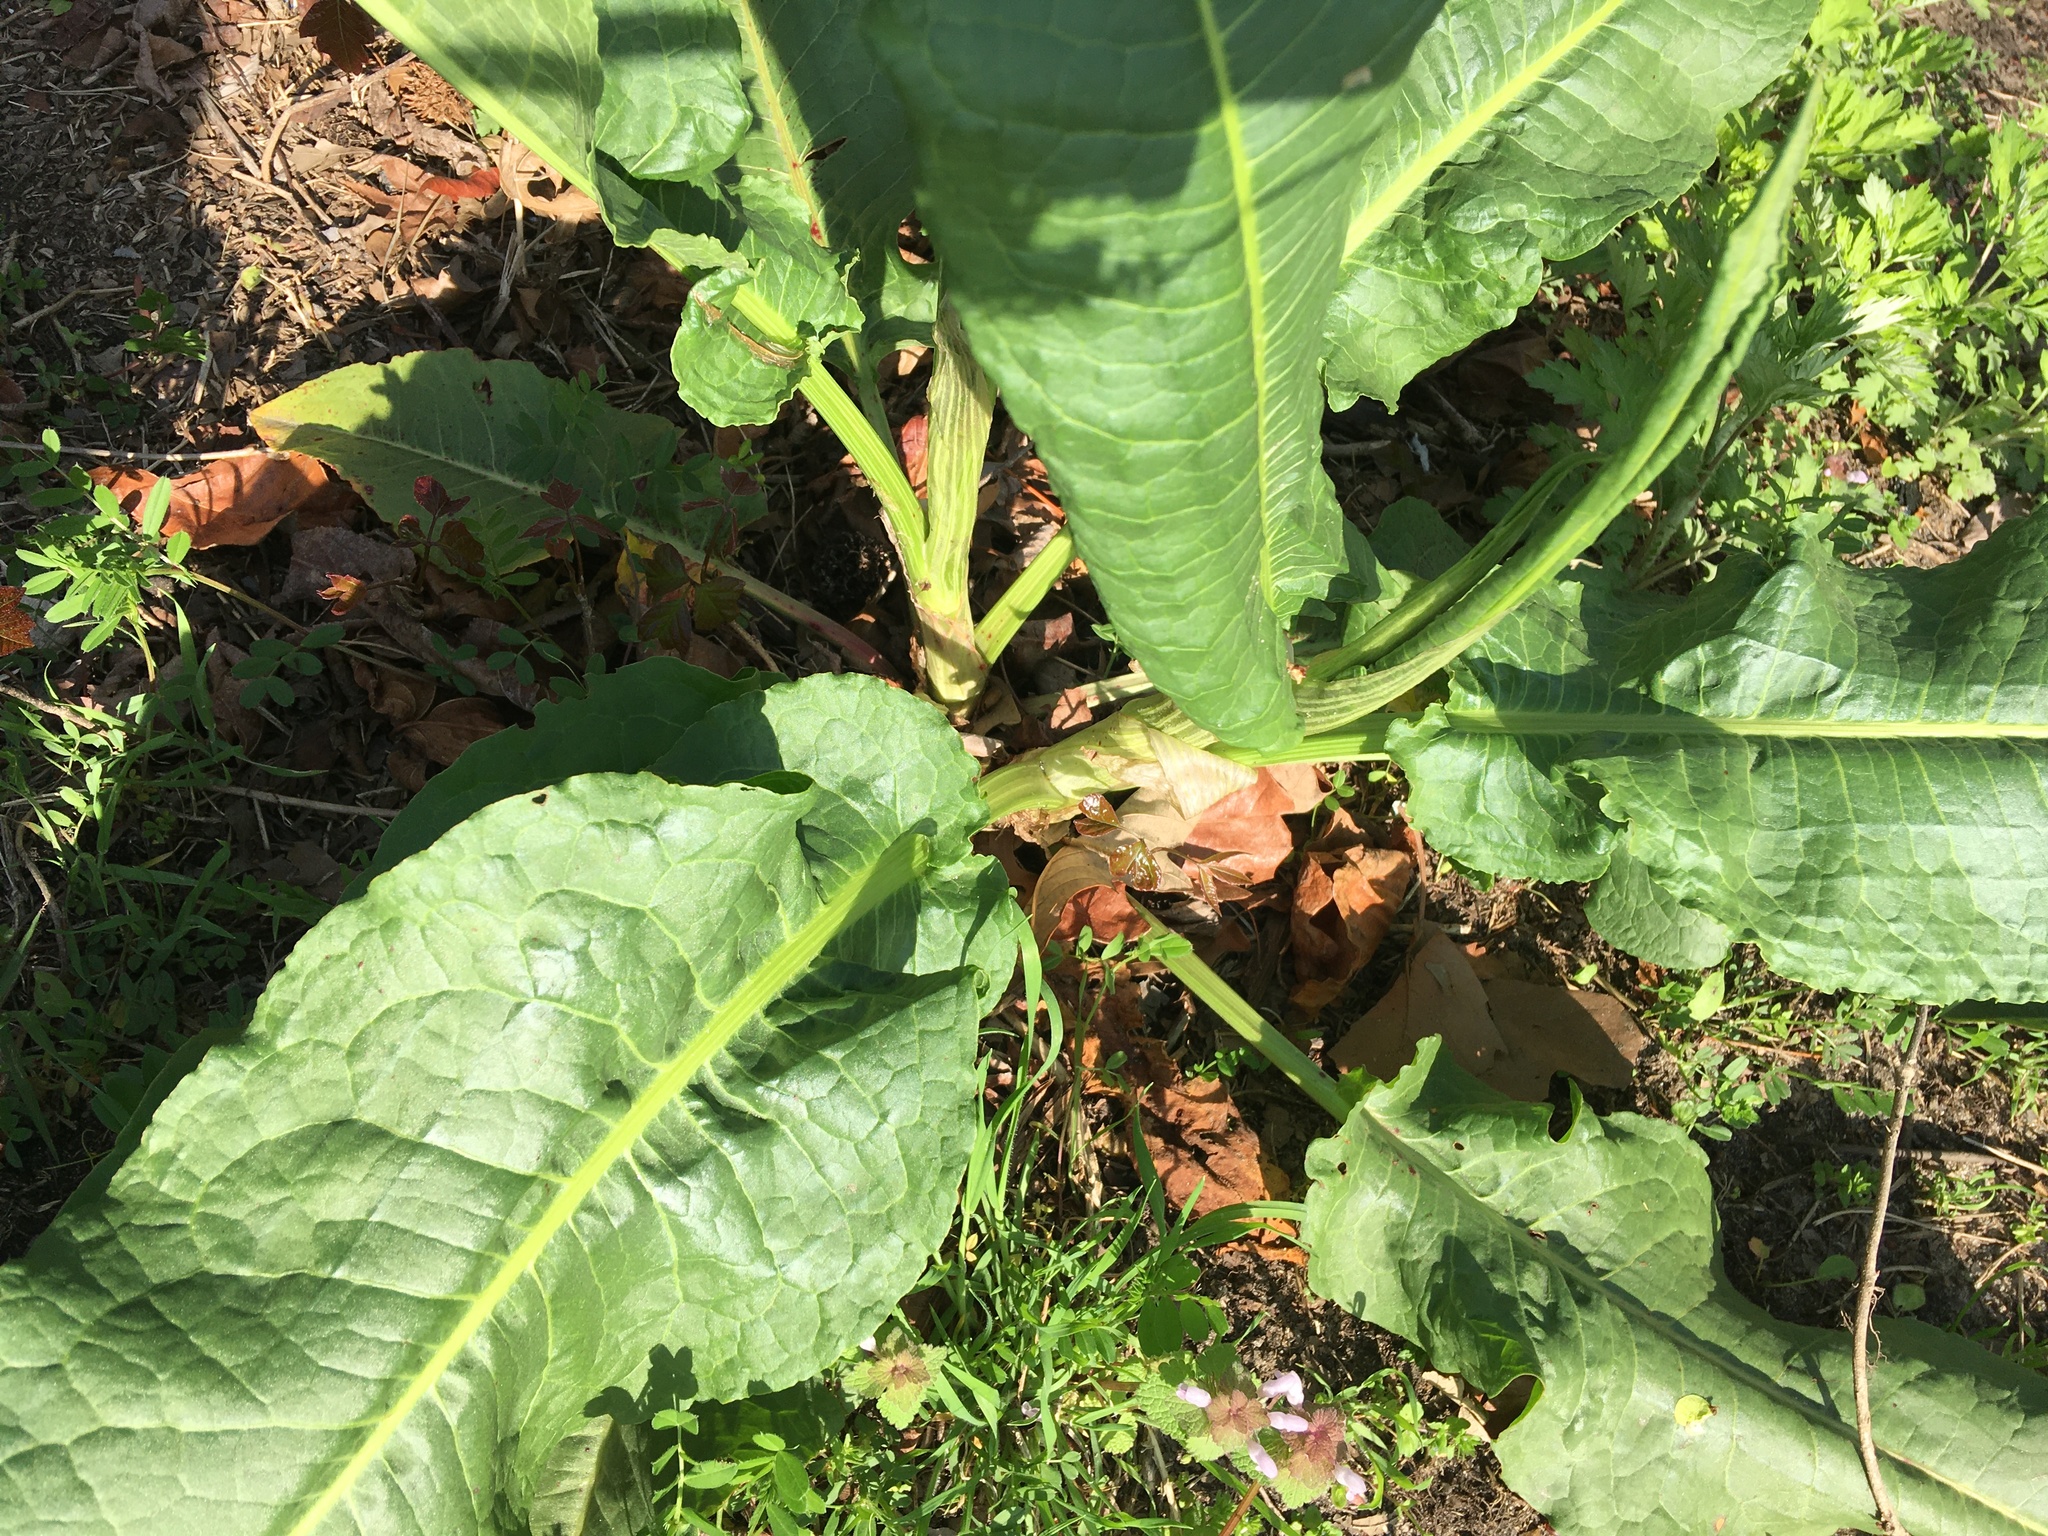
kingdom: Plantae
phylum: Tracheophyta
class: Magnoliopsida
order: Caryophyllales
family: Polygonaceae
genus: Rumex
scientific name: Rumex obtusifolius
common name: Bitter dock
